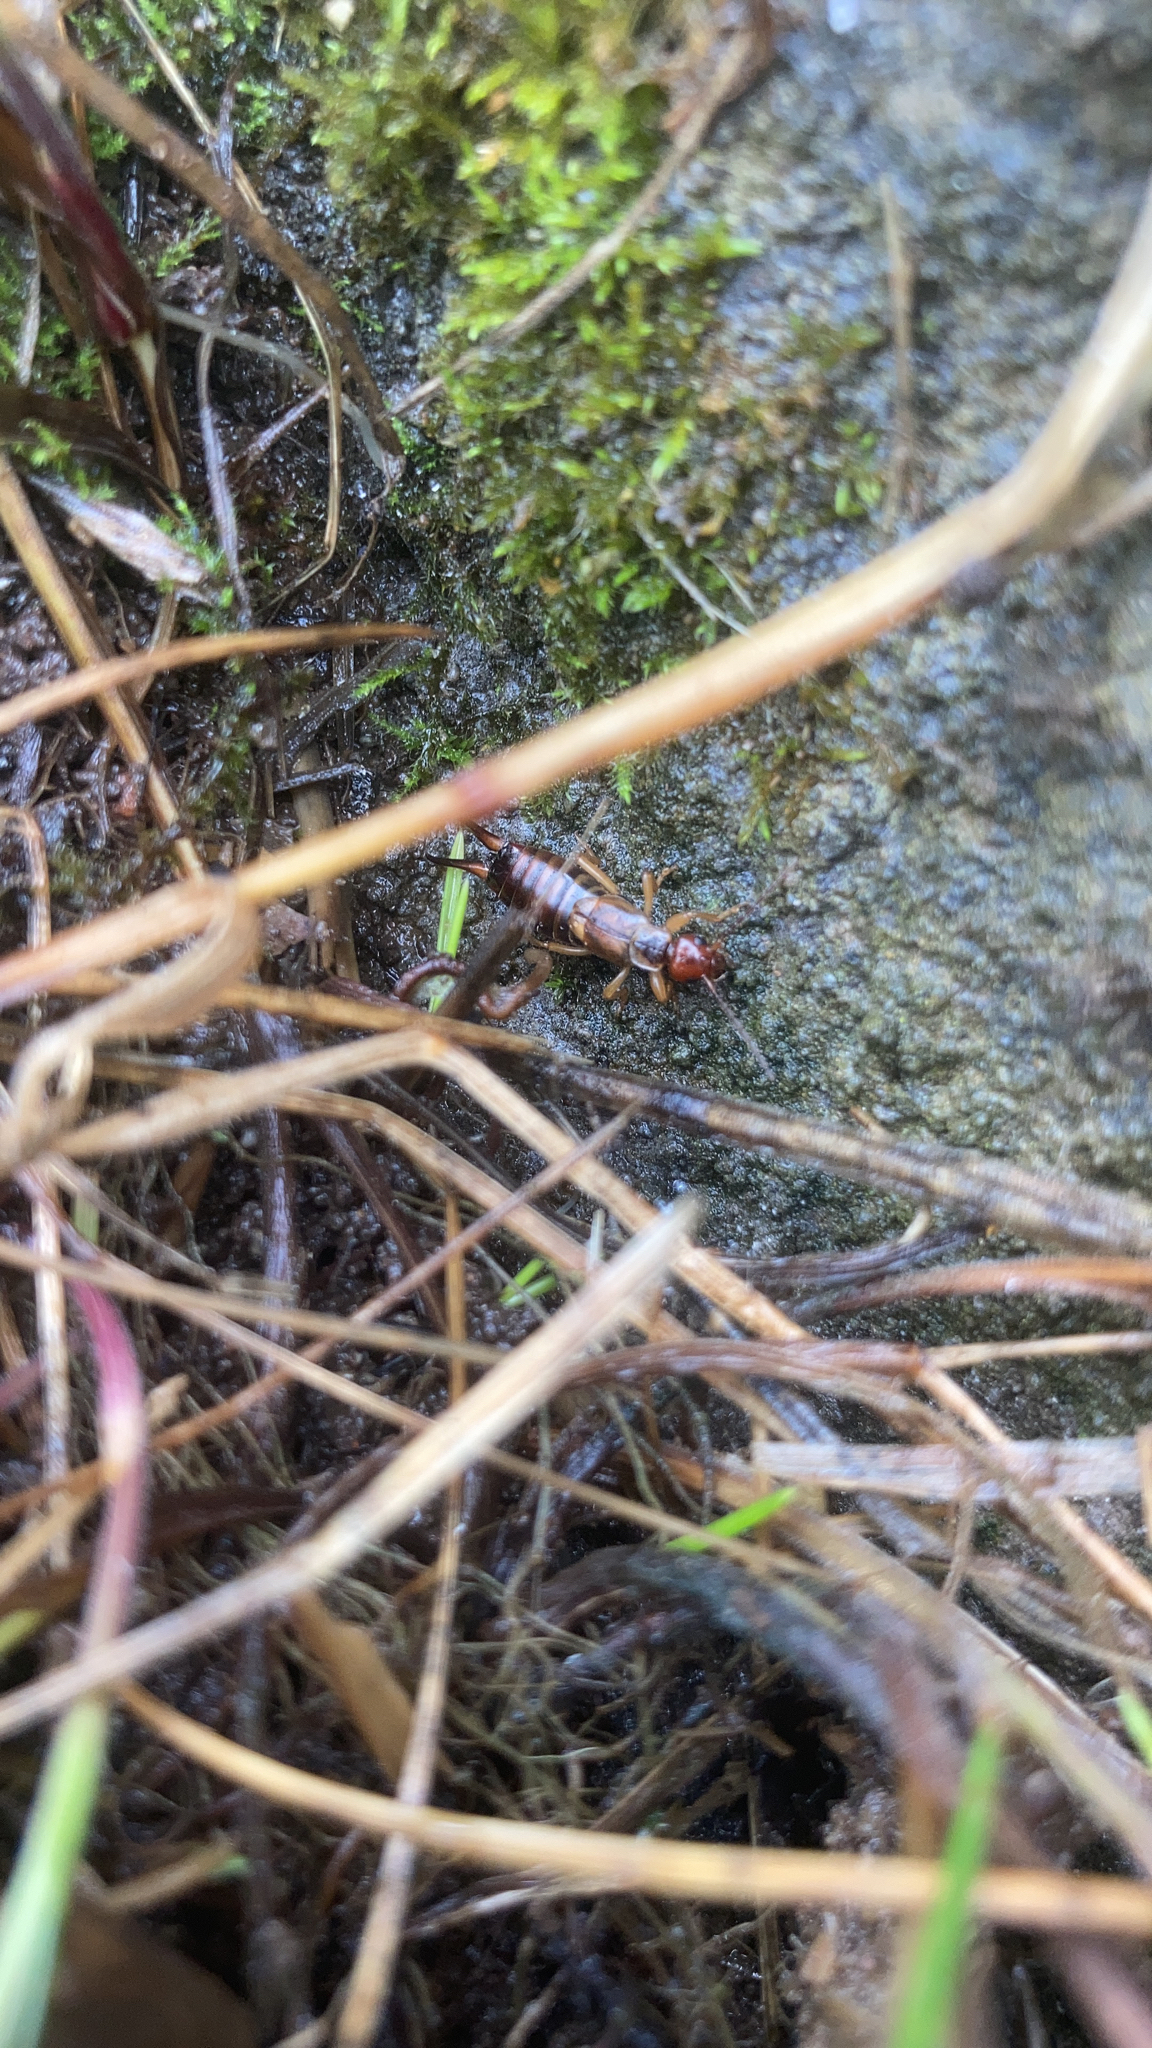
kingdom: Animalia
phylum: Arthropoda
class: Insecta
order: Dermaptera
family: Forficulidae
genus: Forficula
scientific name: Forficula
